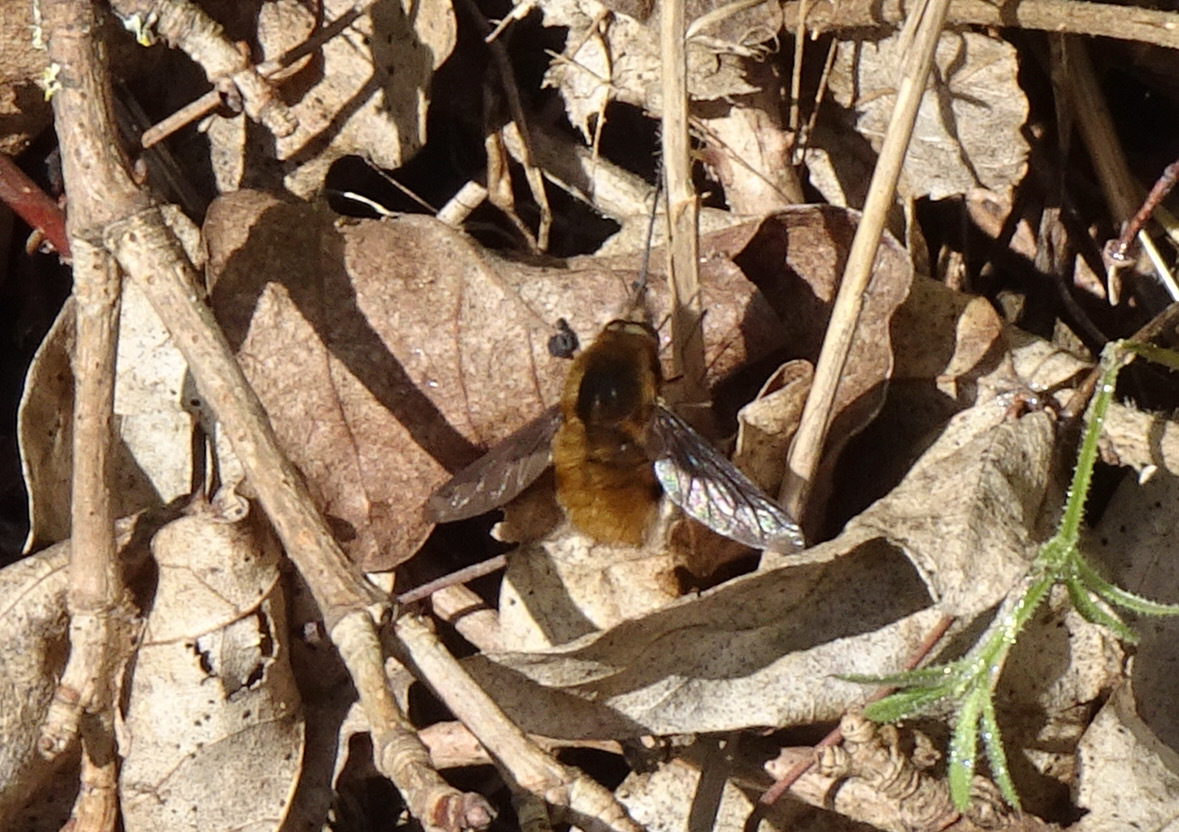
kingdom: Animalia
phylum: Arthropoda
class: Insecta
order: Diptera
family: Bombyliidae
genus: Bombylius
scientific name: Bombylius major
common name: Bee fly
